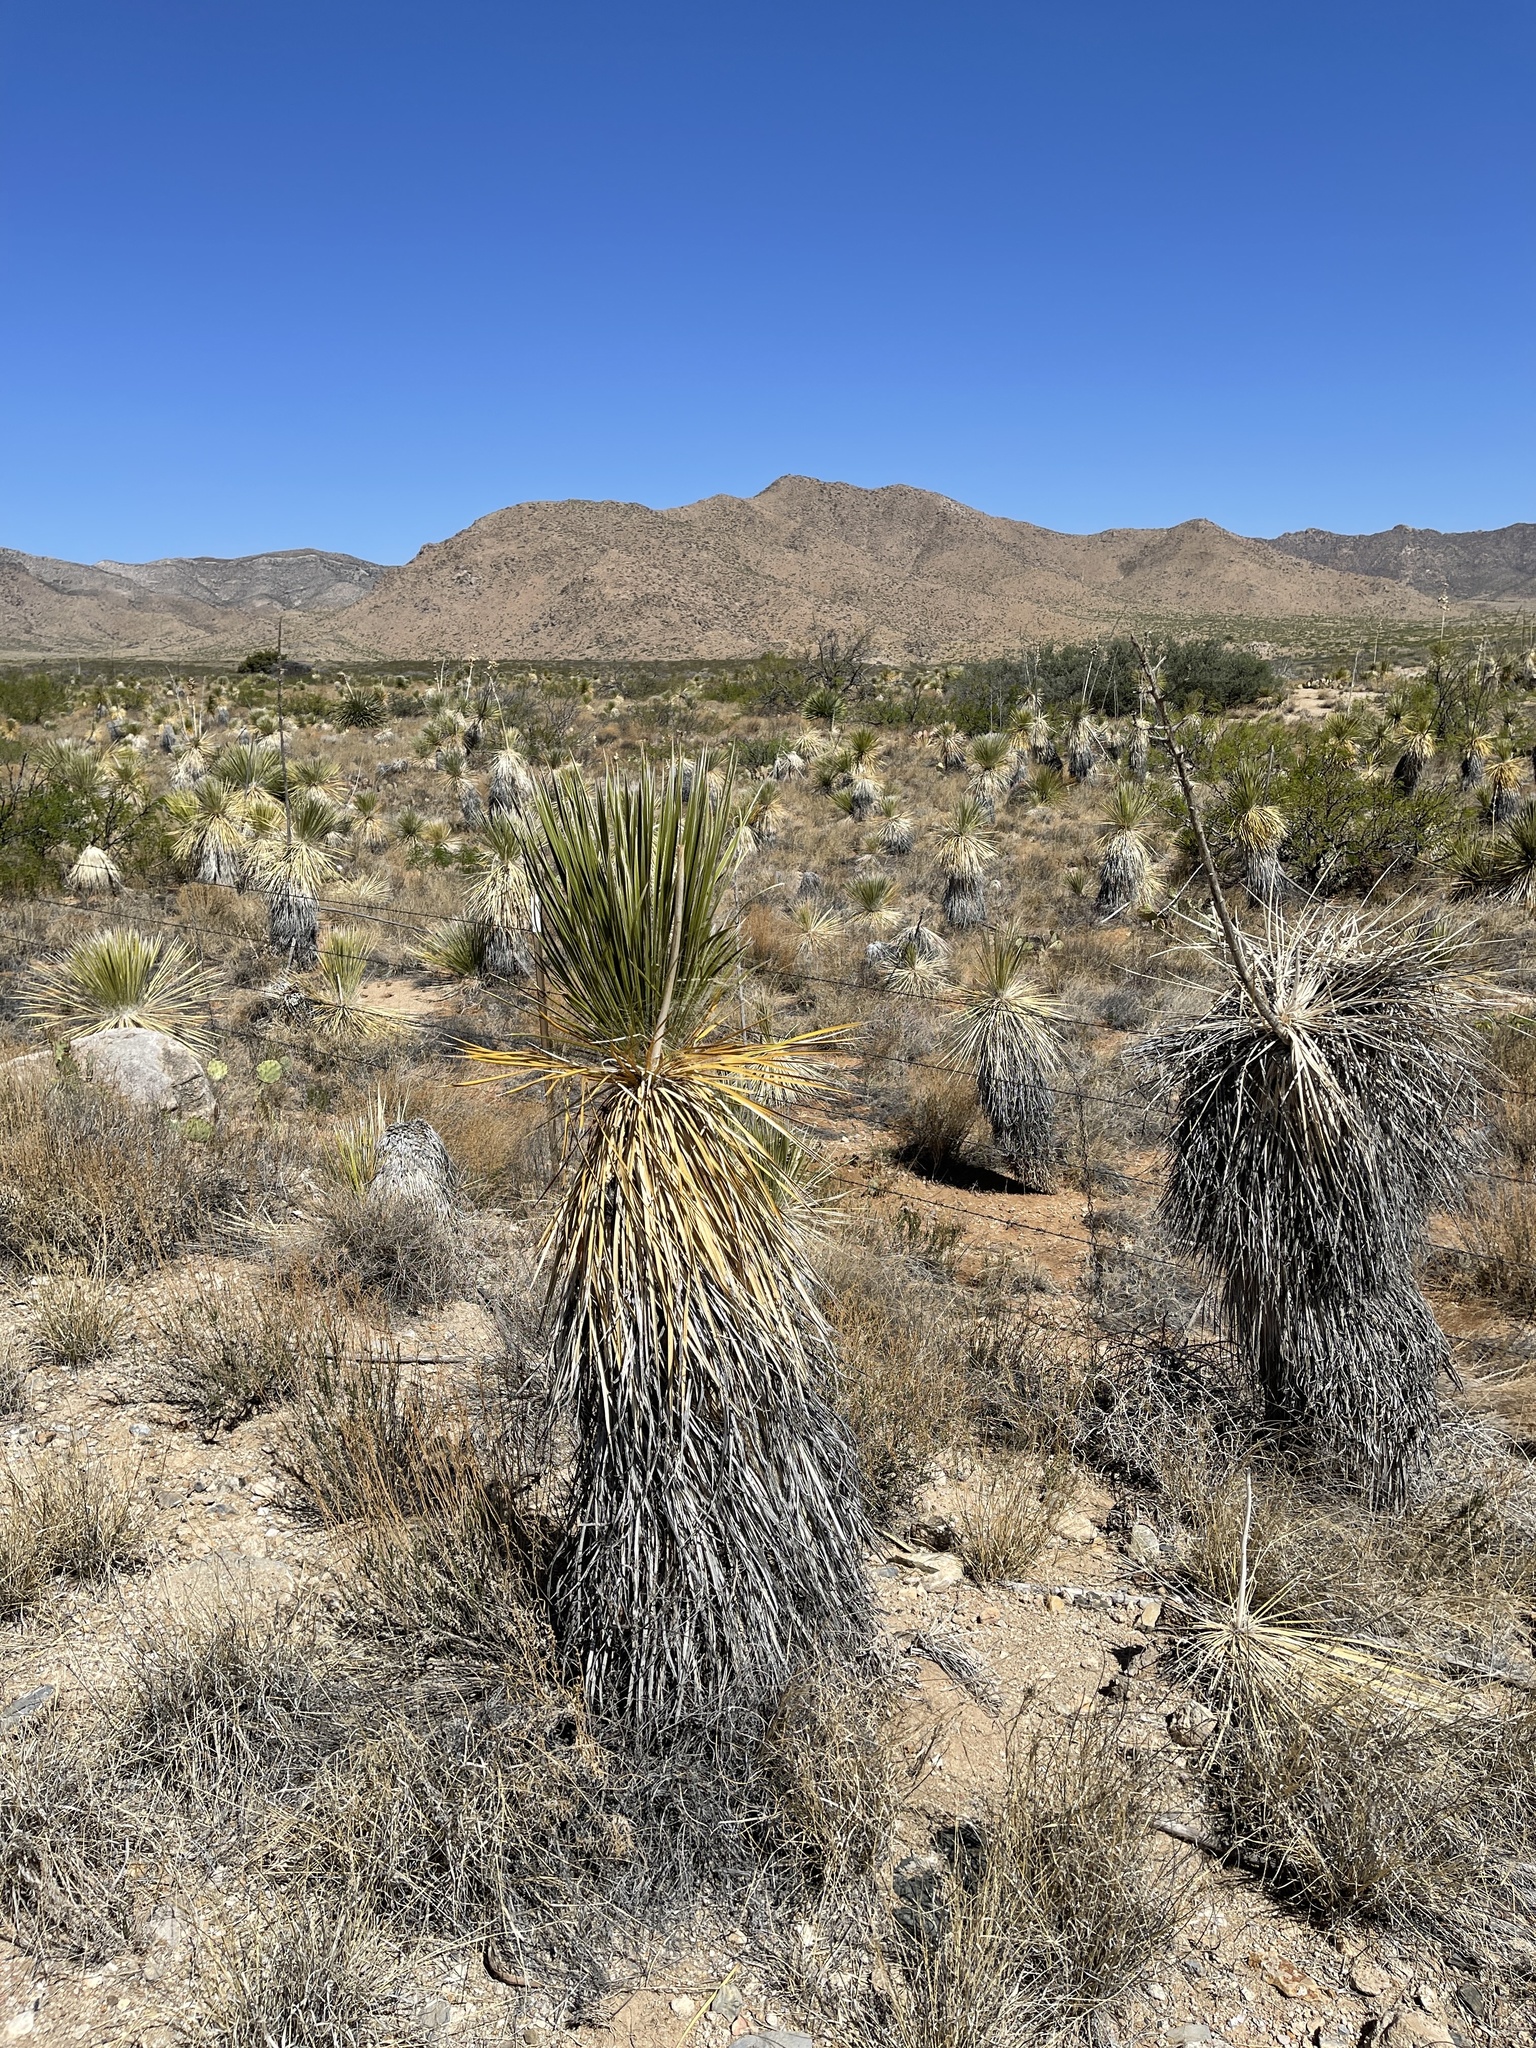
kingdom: Plantae
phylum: Tracheophyta
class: Liliopsida
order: Asparagales
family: Asparagaceae
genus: Yucca
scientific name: Yucca elata
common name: Palmella
